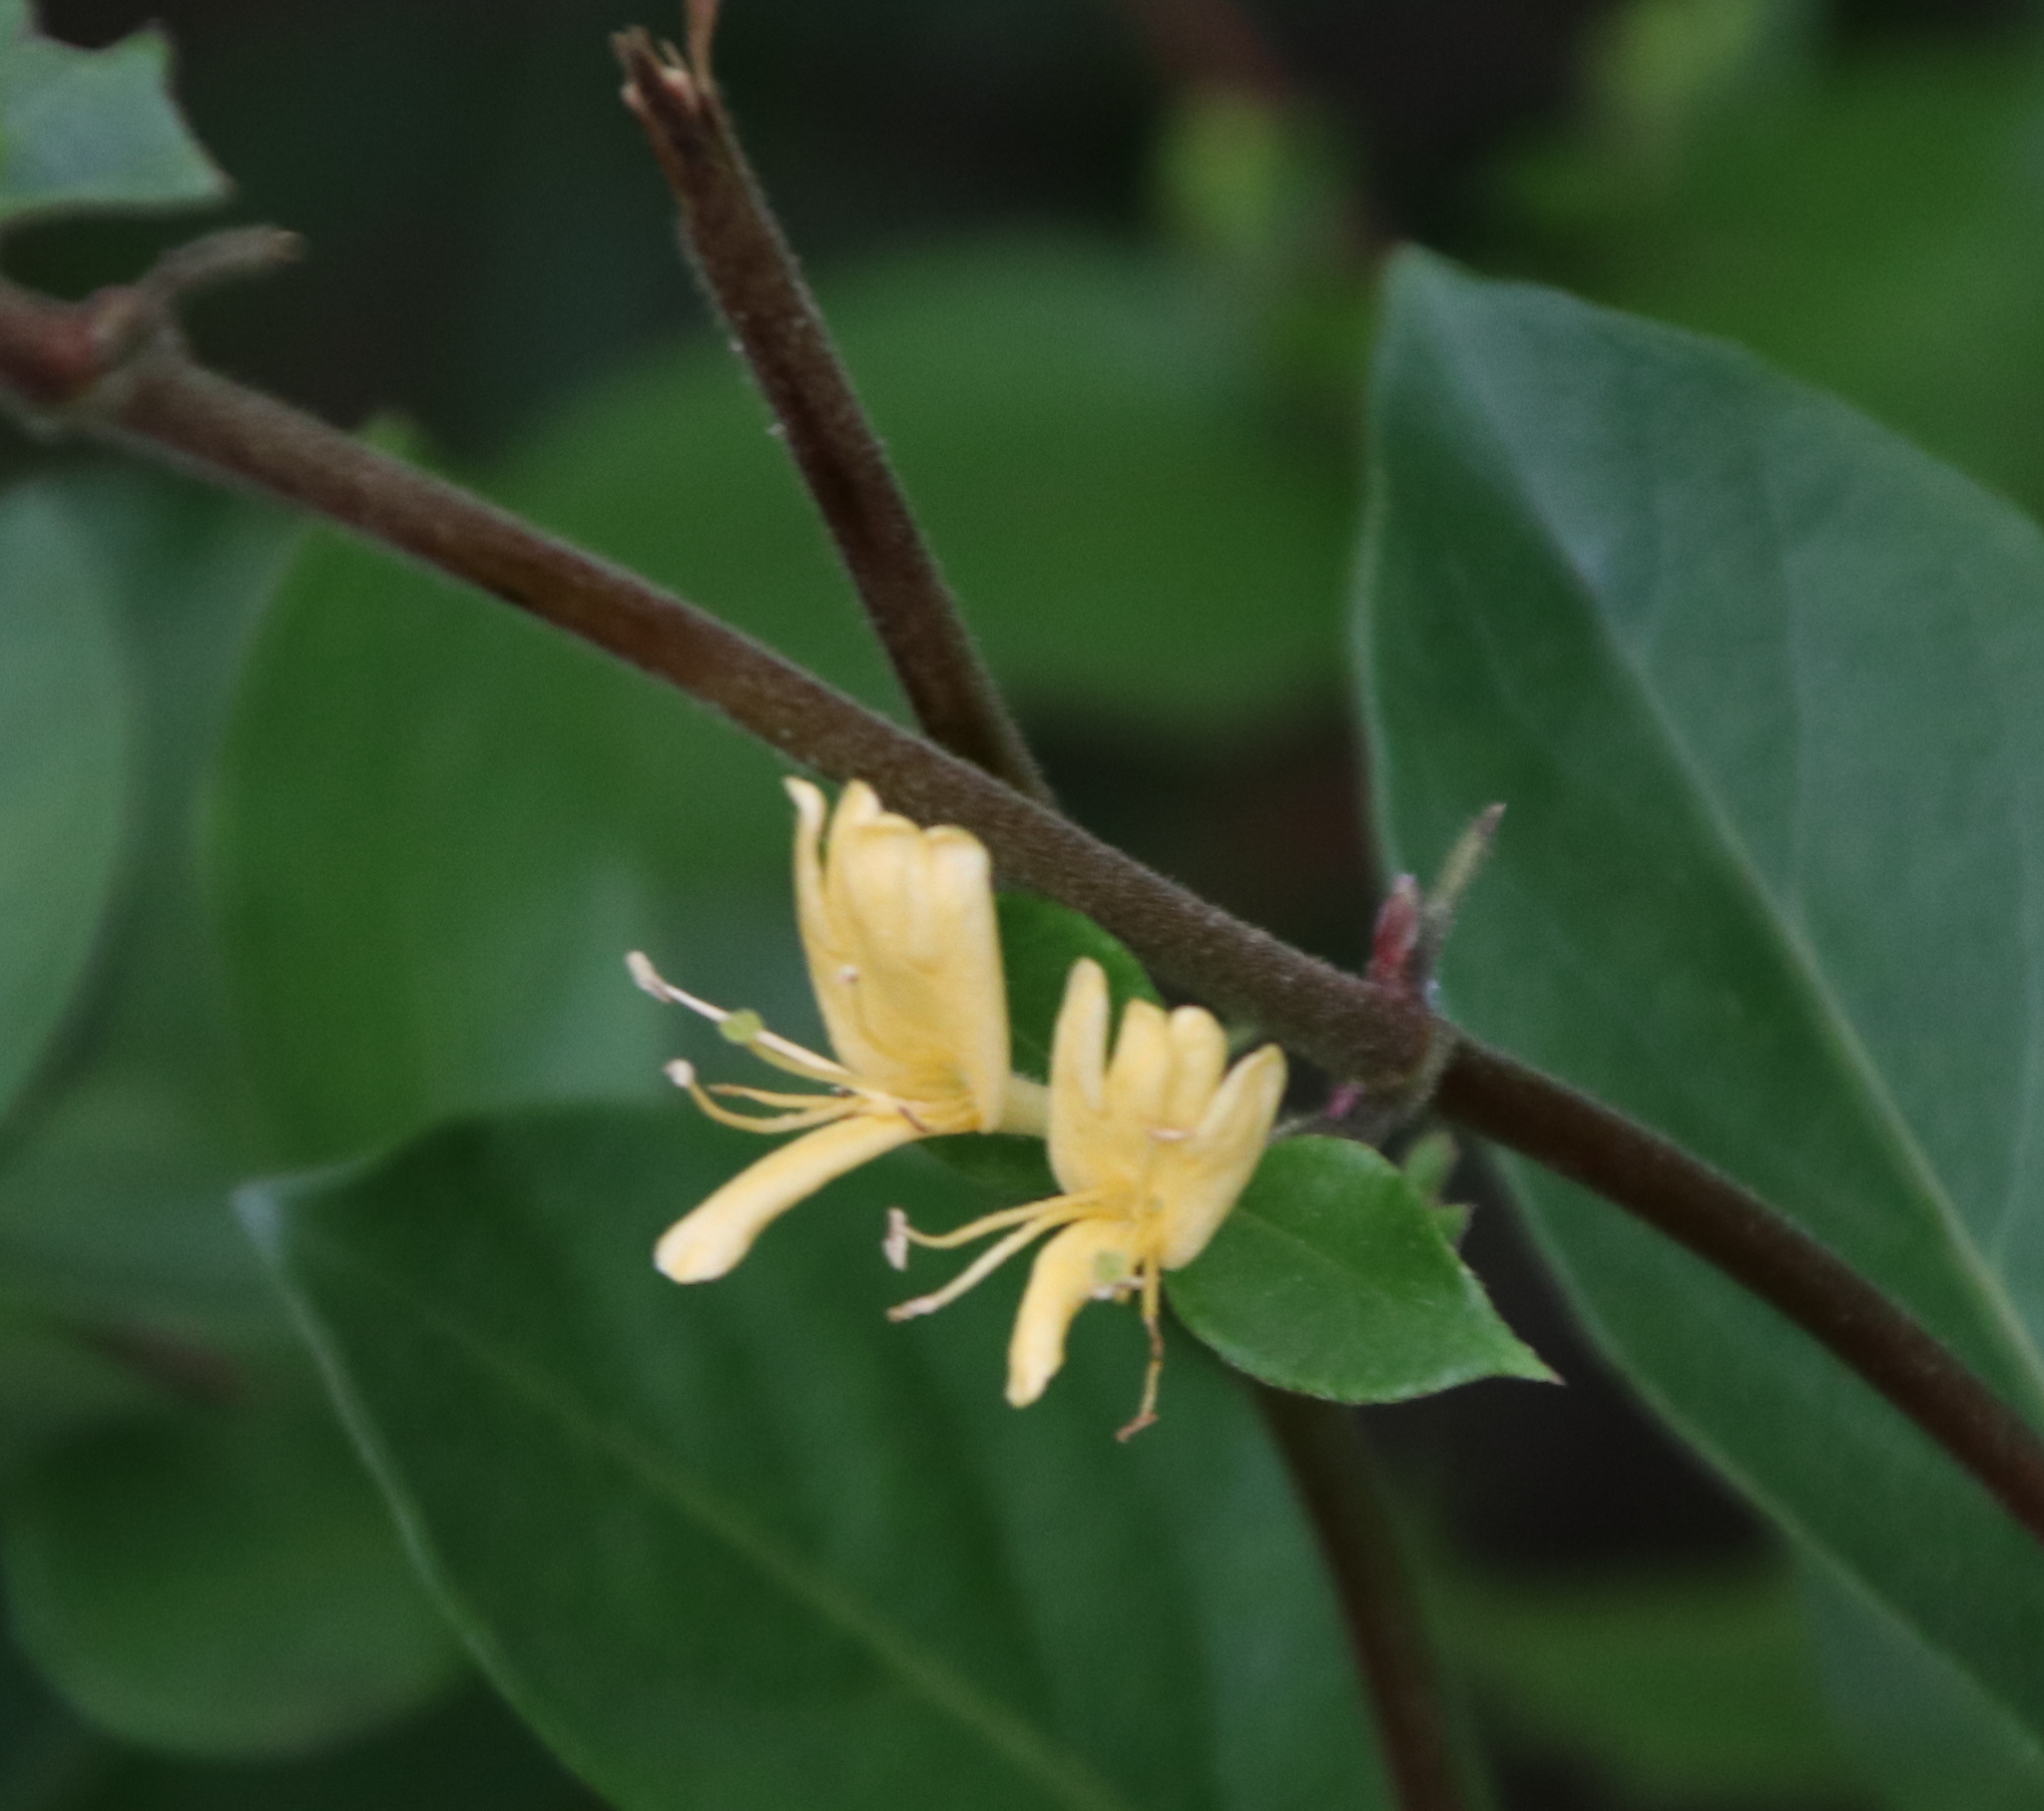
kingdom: Plantae
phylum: Tracheophyta
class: Magnoliopsida
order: Dipsacales
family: Caprifoliaceae
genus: Lonicera
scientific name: Lonicera japonica
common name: Japanese honeysuckle
